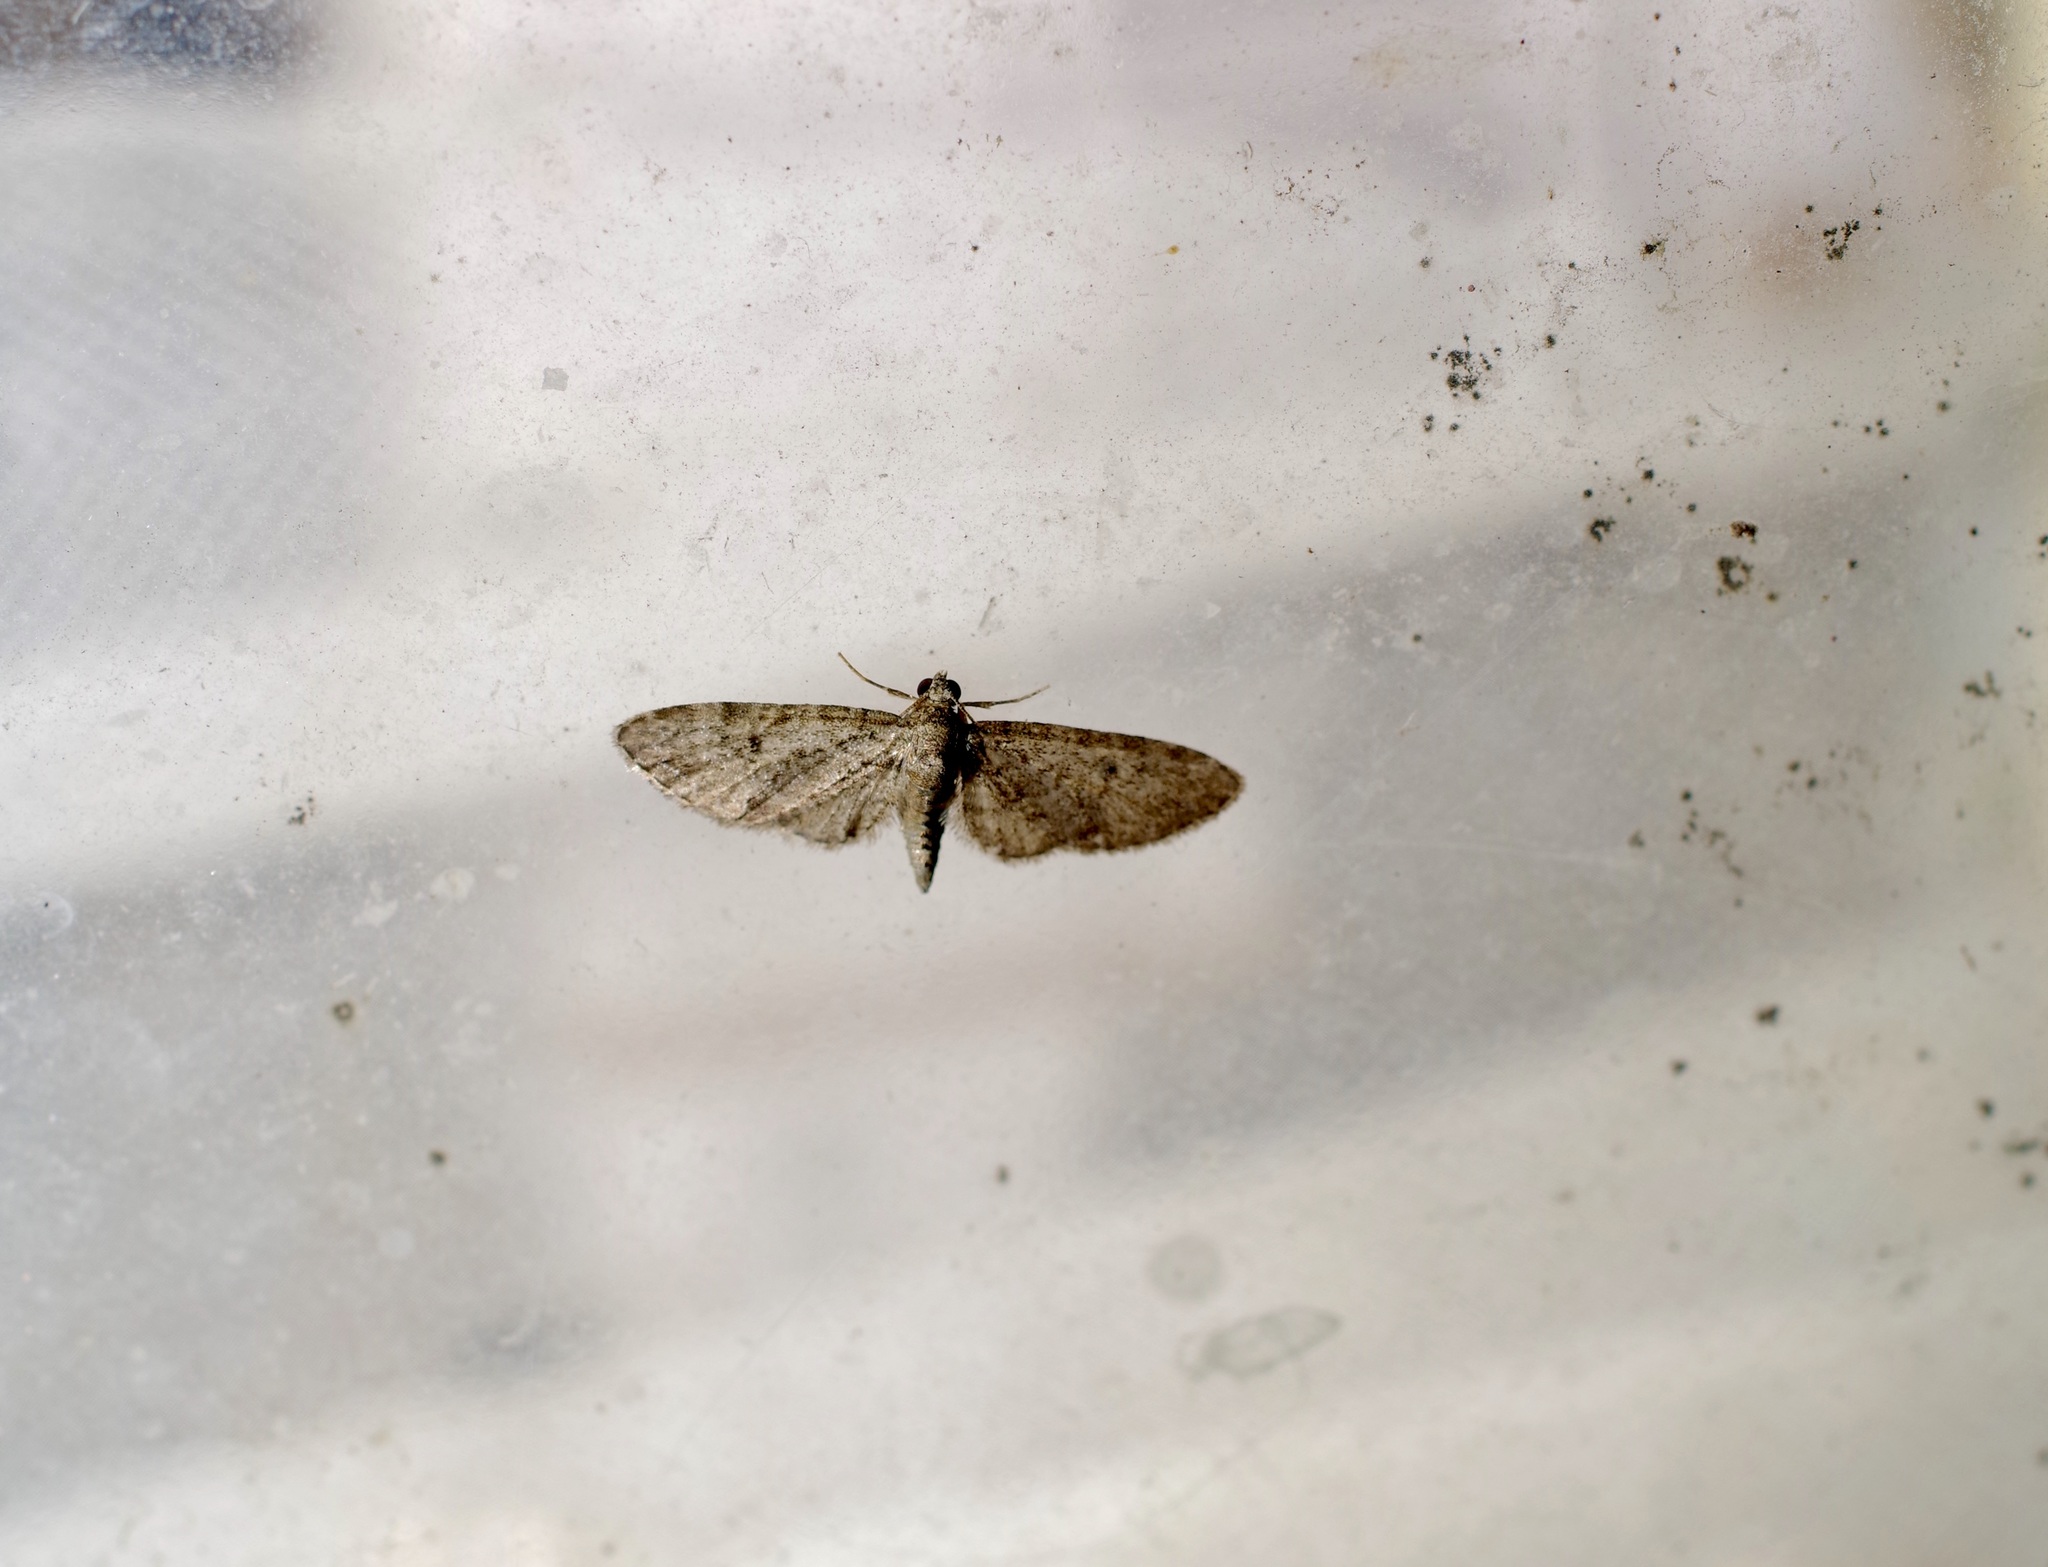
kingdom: Animalia
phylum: Arthropoda
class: Insecta
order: Lepidoptera
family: Geometridae
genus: Eupithecia
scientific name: Eupithecia miserulata
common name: Common eupithecia
